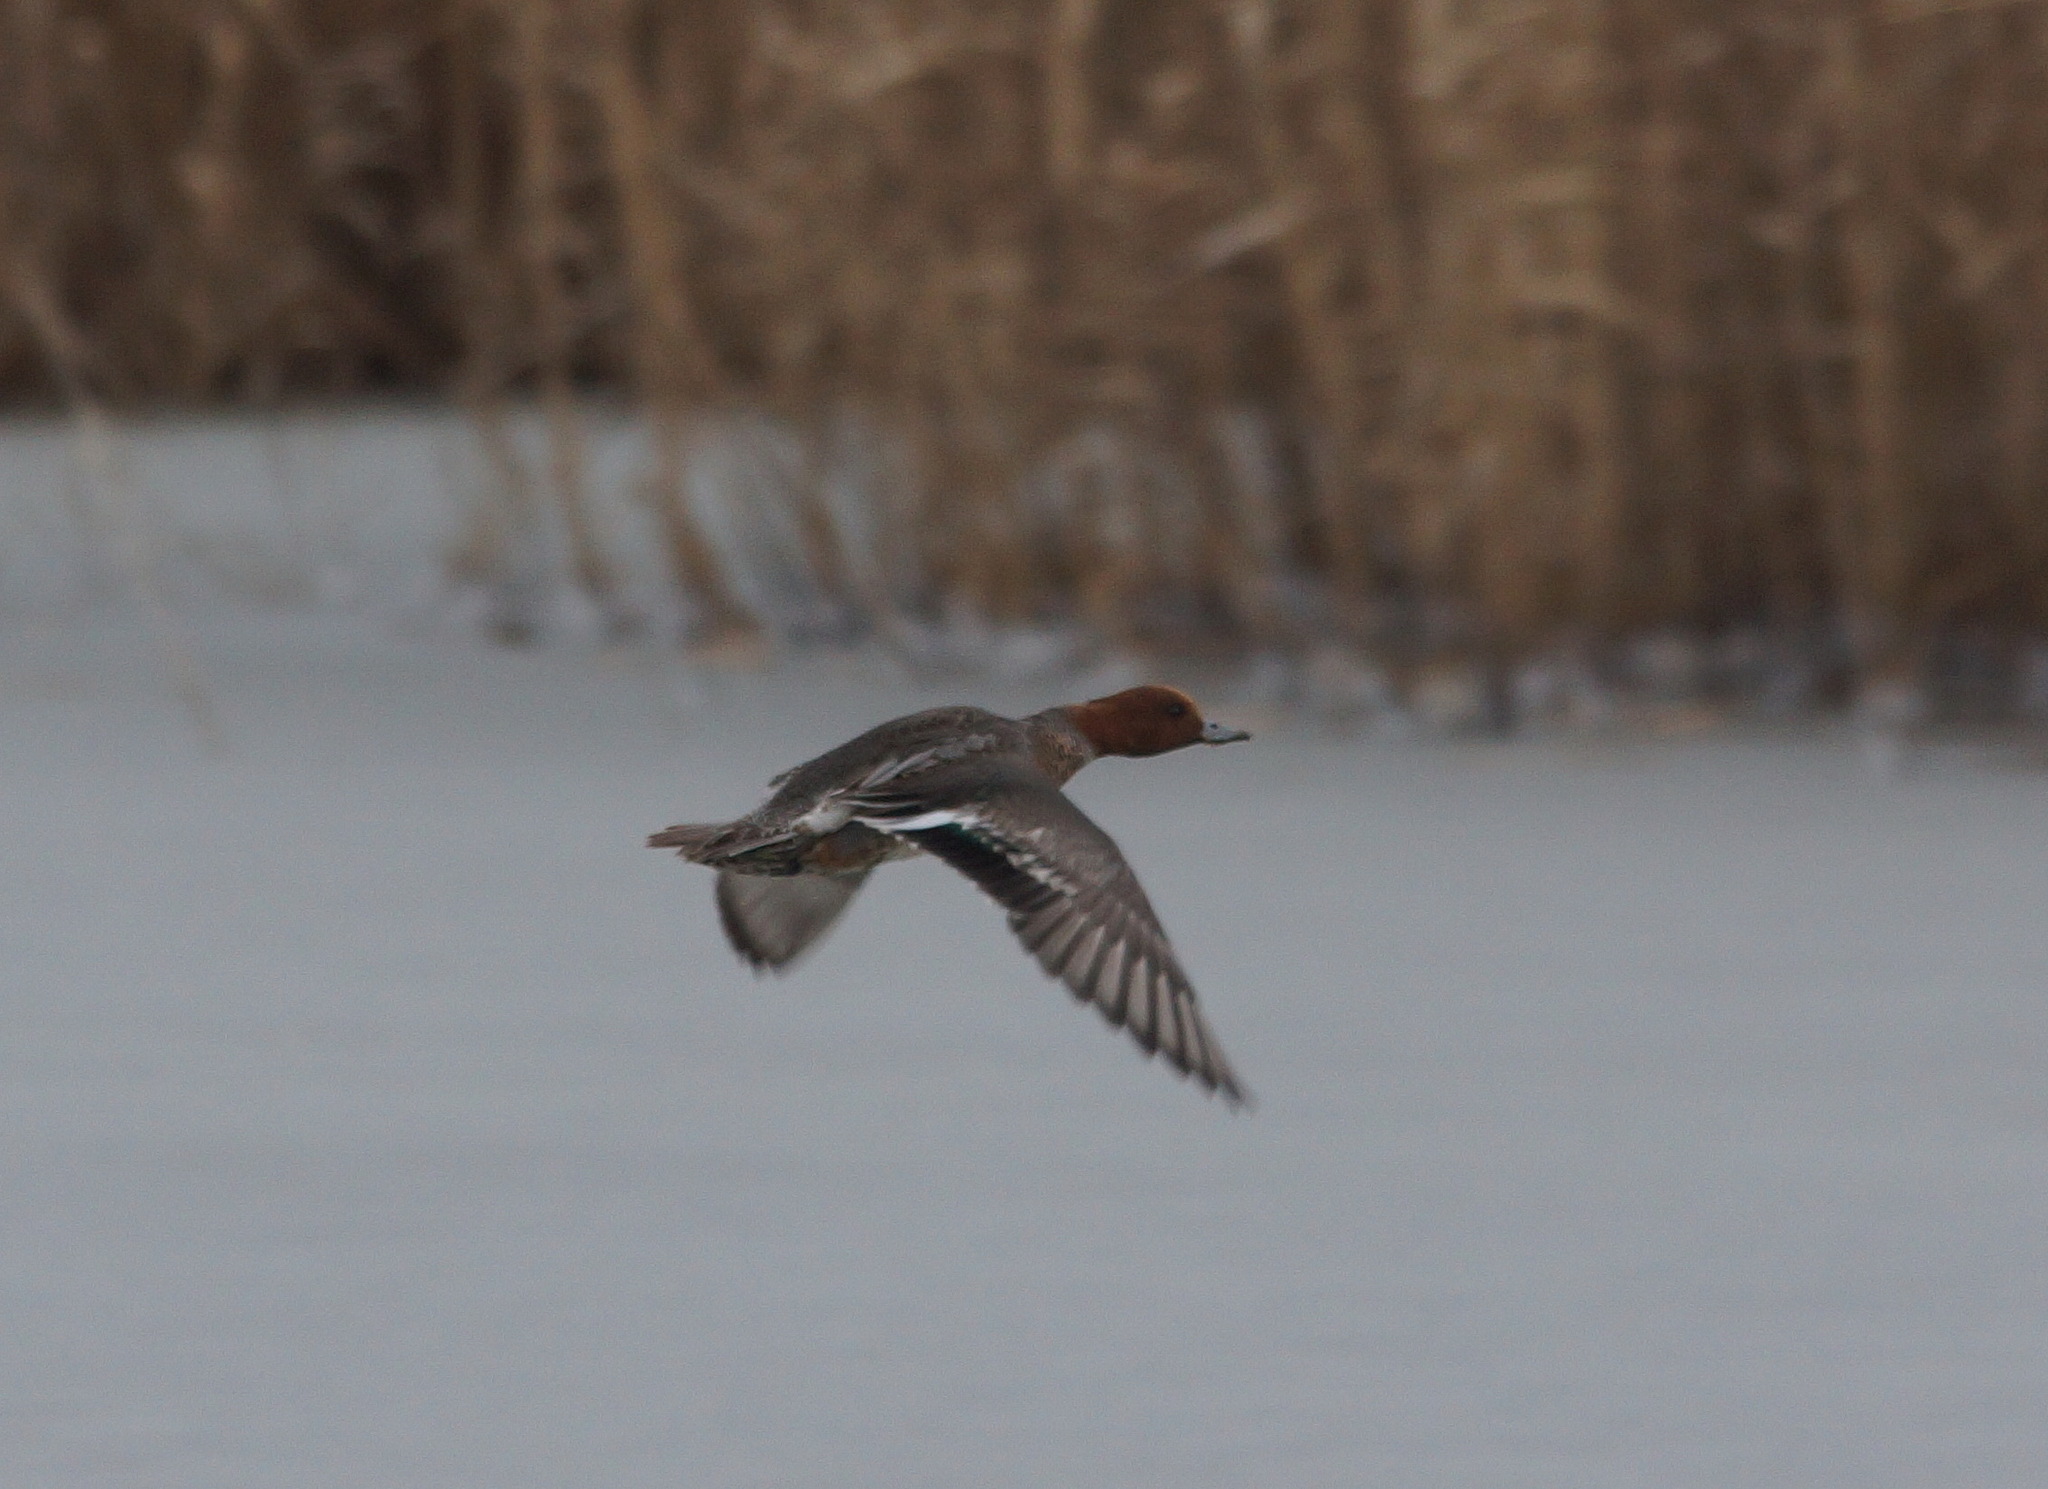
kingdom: Animalia
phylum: Chordata
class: Aves
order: Anseriformes
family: Anatidae
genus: Mareca
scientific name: Mareca penelope
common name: Eurasian wigeon
